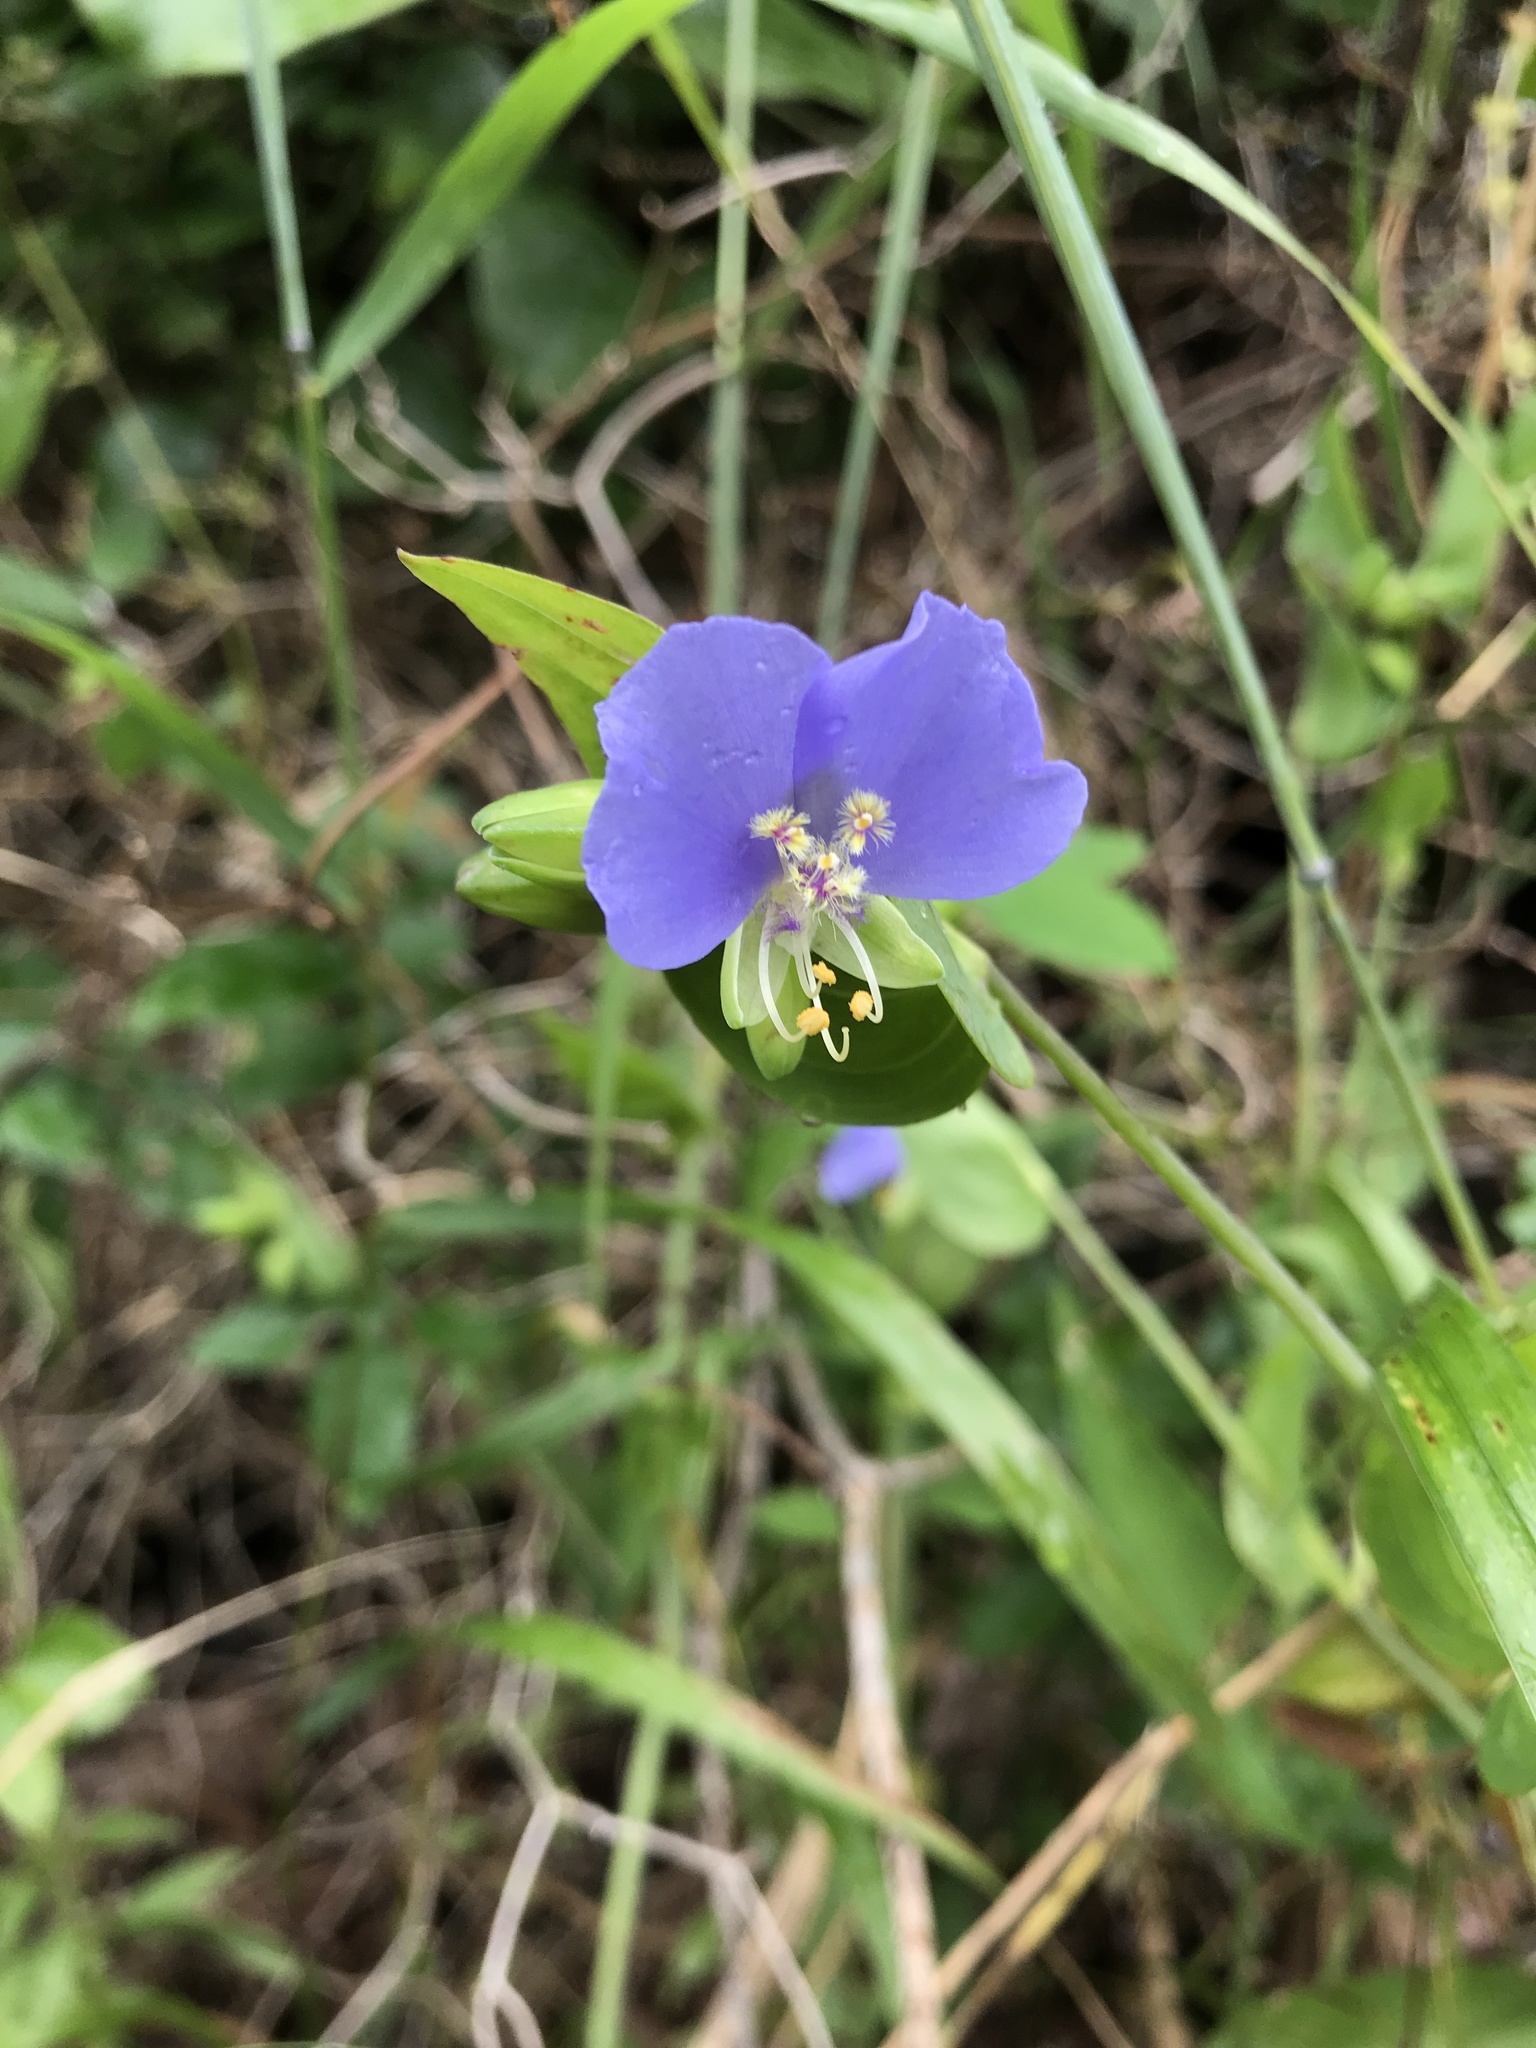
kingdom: Plantae
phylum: Tracheophyta
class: Liliopsida
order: Commelinales
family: Commelinaceae
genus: Tinantia
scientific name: Tinantia anomala
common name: False dayflower
